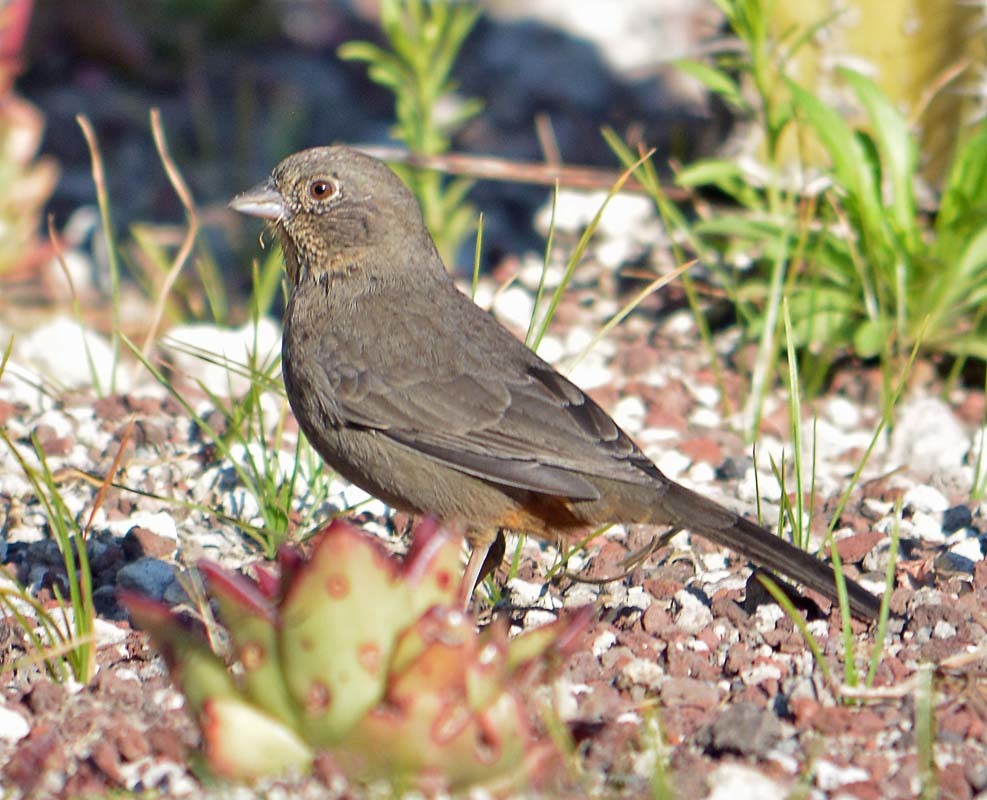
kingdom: Animalia
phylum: Chordata
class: Aves
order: Passeriformes
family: Passerellidae
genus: Melozone
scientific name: Melozone fusca
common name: Canyon towhee
